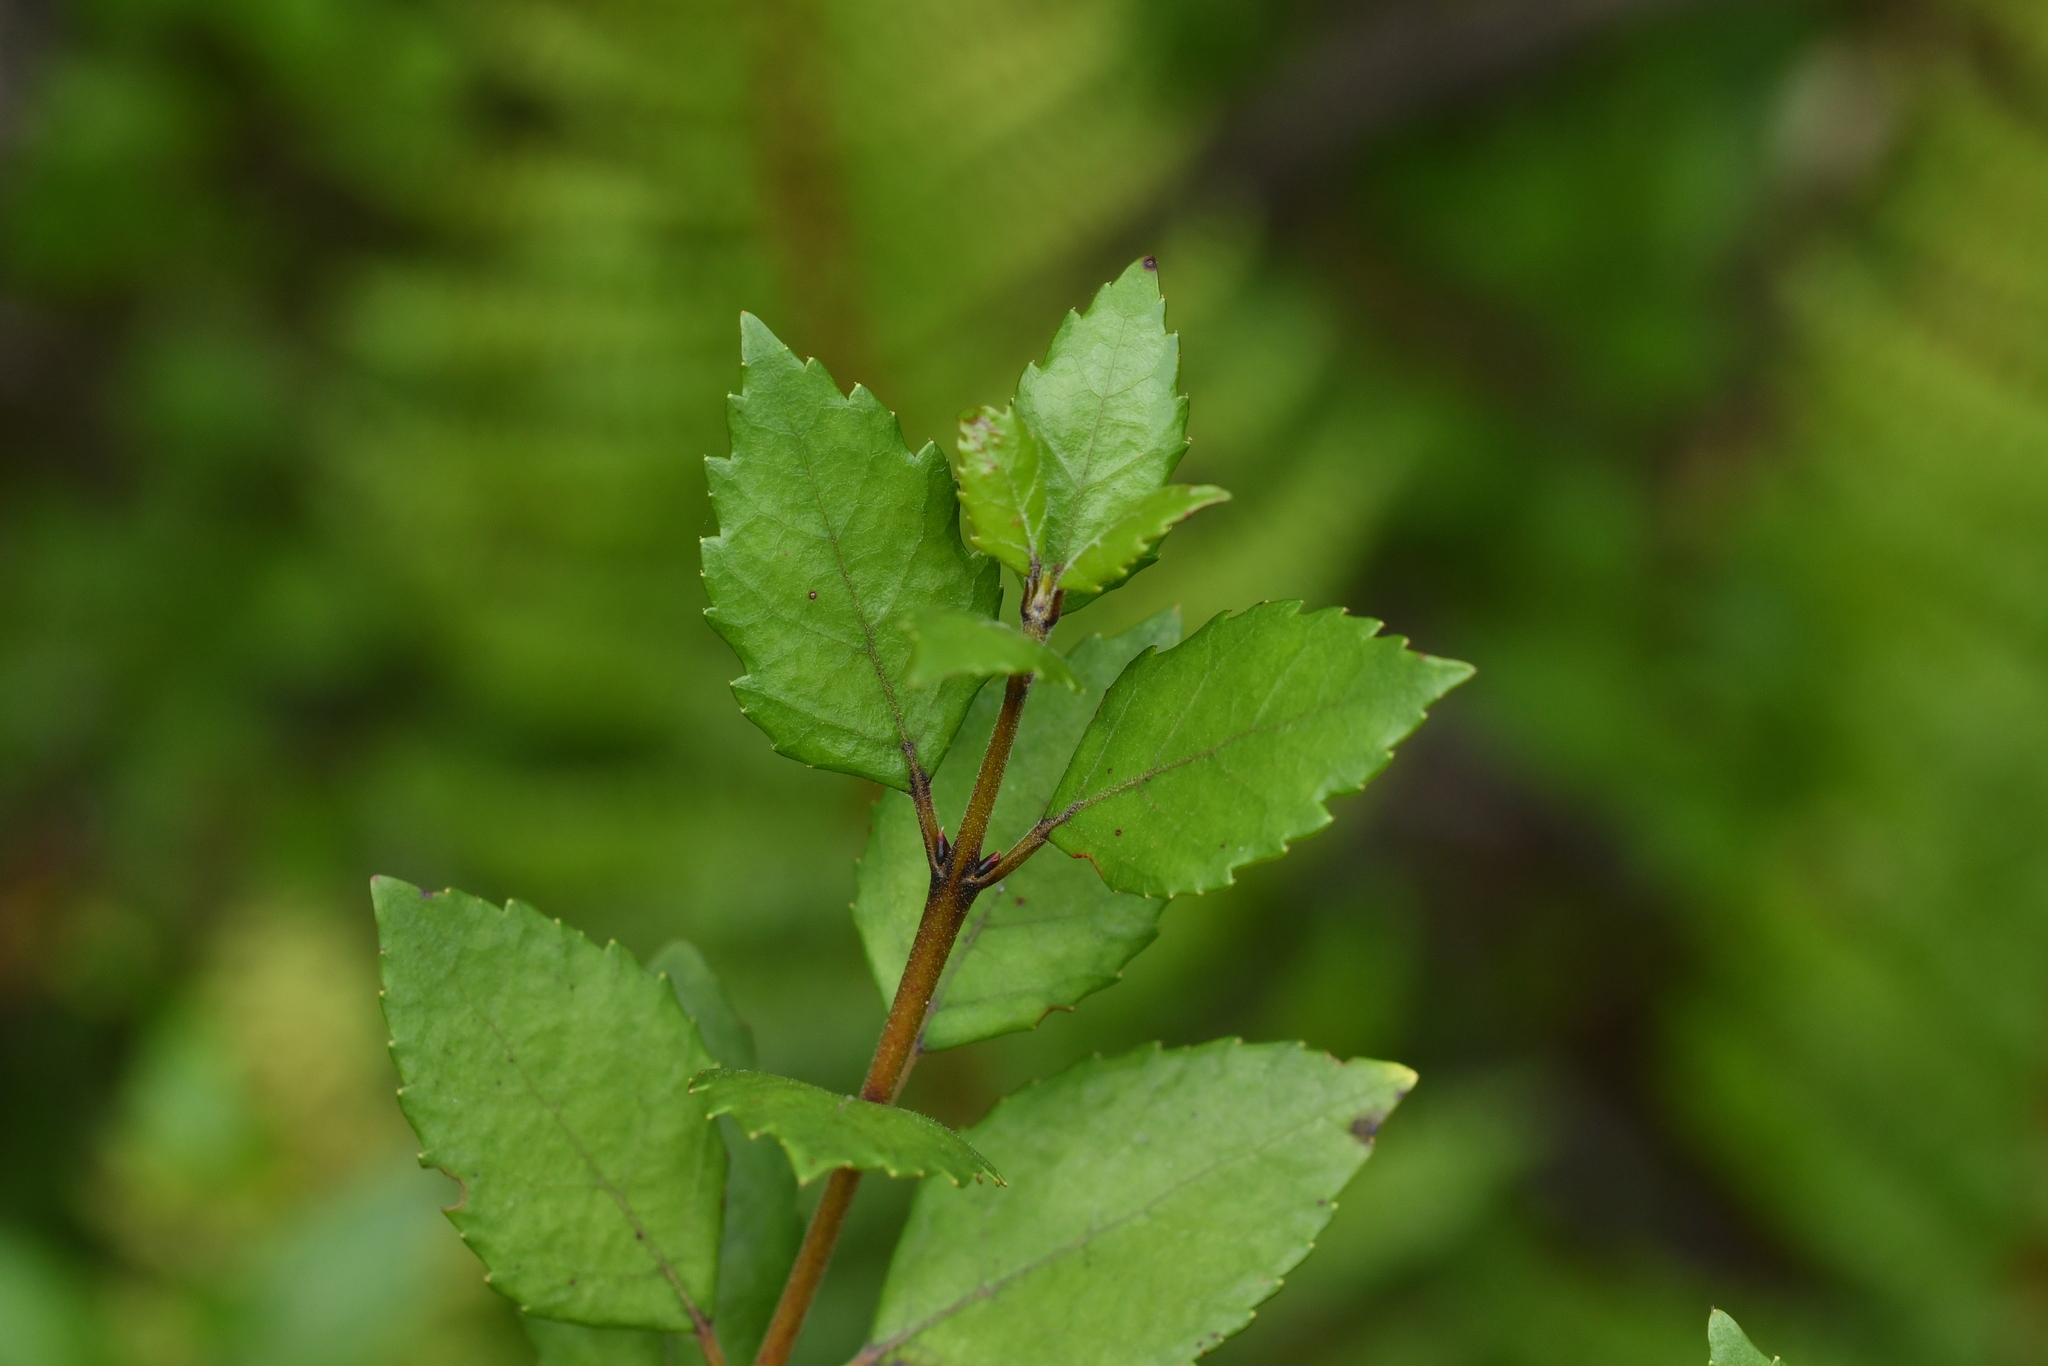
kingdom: Plantae
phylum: Tracheophyta
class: Magnoliopsida
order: Oxalidales
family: Elaeocarpaceae
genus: Aristotelia
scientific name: Aristotelia fruticosa
